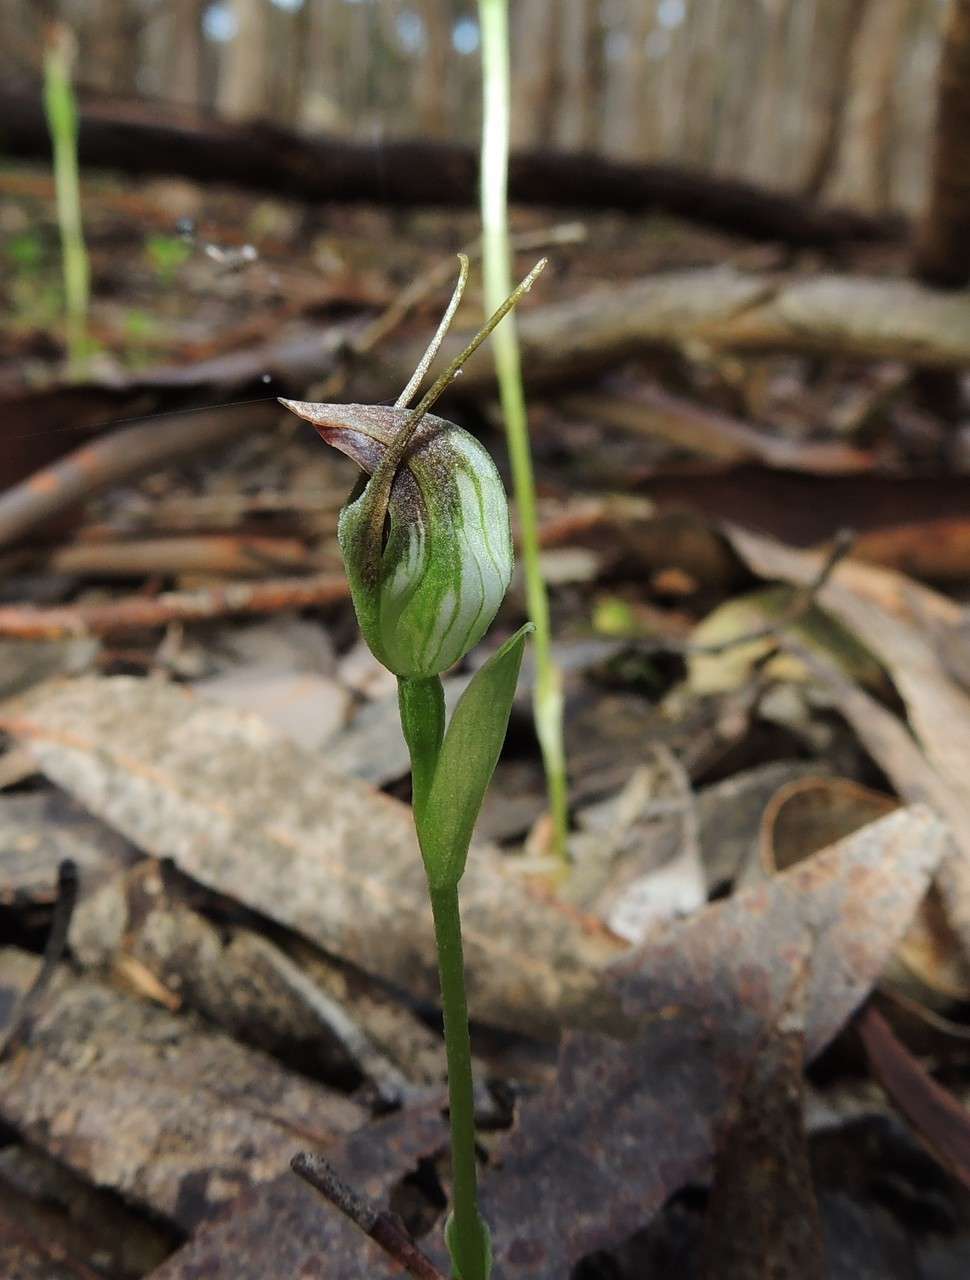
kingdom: Plantae
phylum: Tracheophyta
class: Liliopsida
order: Asparagales
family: Orchidaceae
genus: Pterostylis
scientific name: Pterostylis pedunculata
